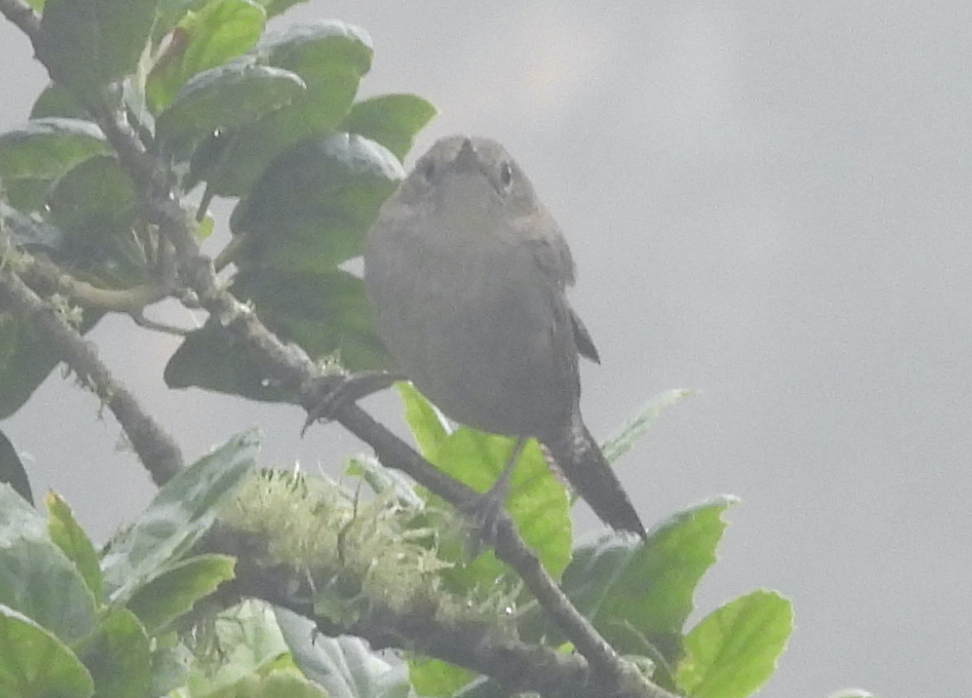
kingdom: Animalia
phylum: Chordata
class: Aves
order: Passeriformes
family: Troglodytidae
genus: Troglodytes
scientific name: Troglodytes aedon
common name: House wren
